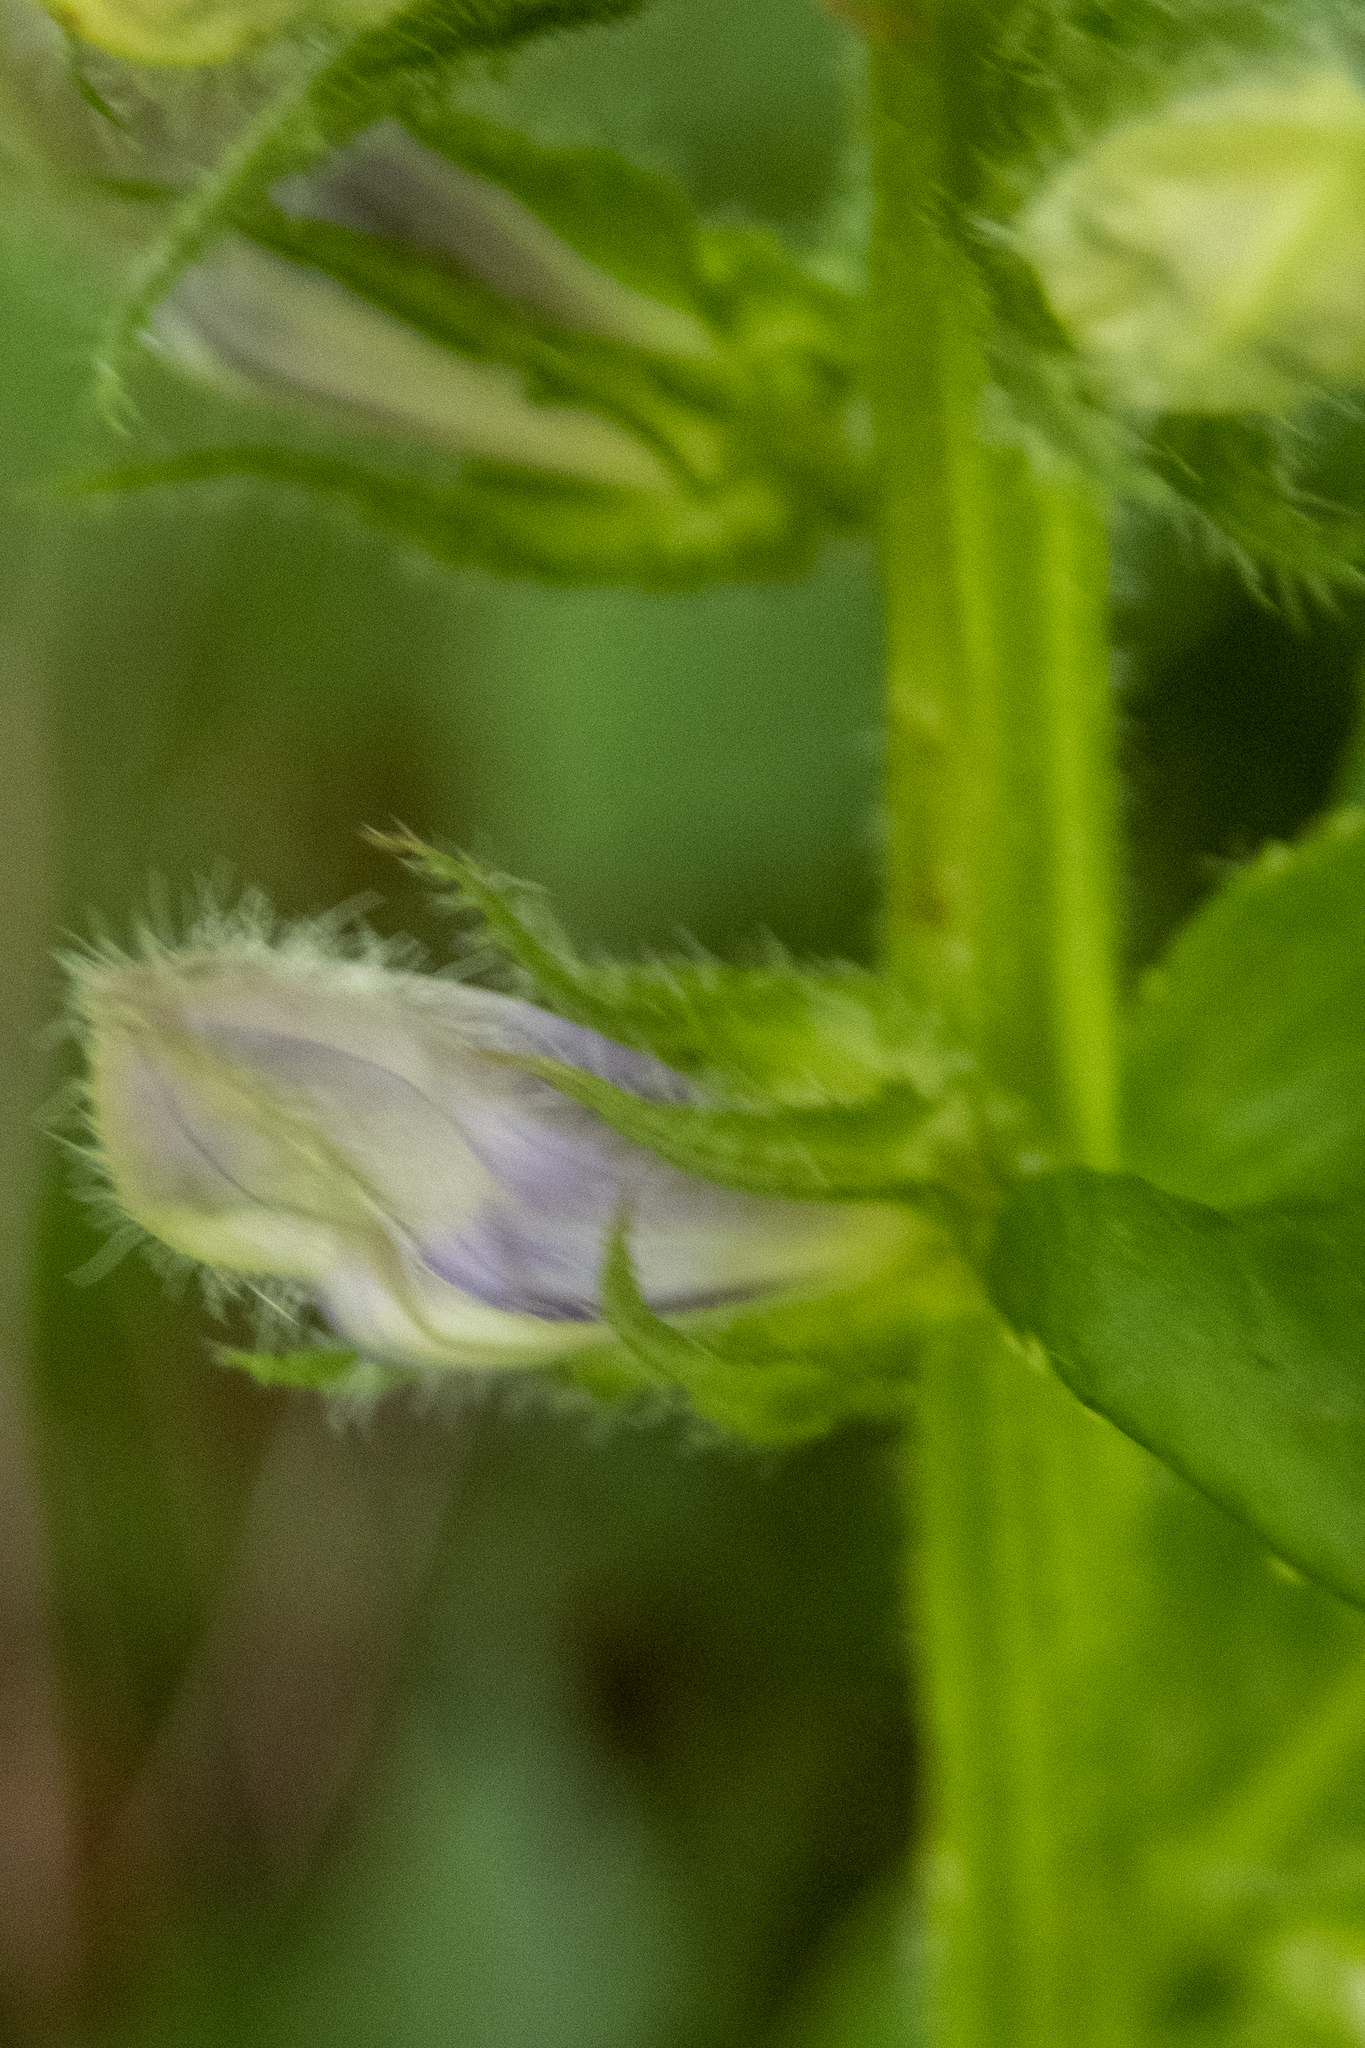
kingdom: Plantae
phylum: Tracheophyta
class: Magnoliopsida
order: Asterales
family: Campanulaceae
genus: Lobelia
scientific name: Lobelia siphilitica
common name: Great lobelia
